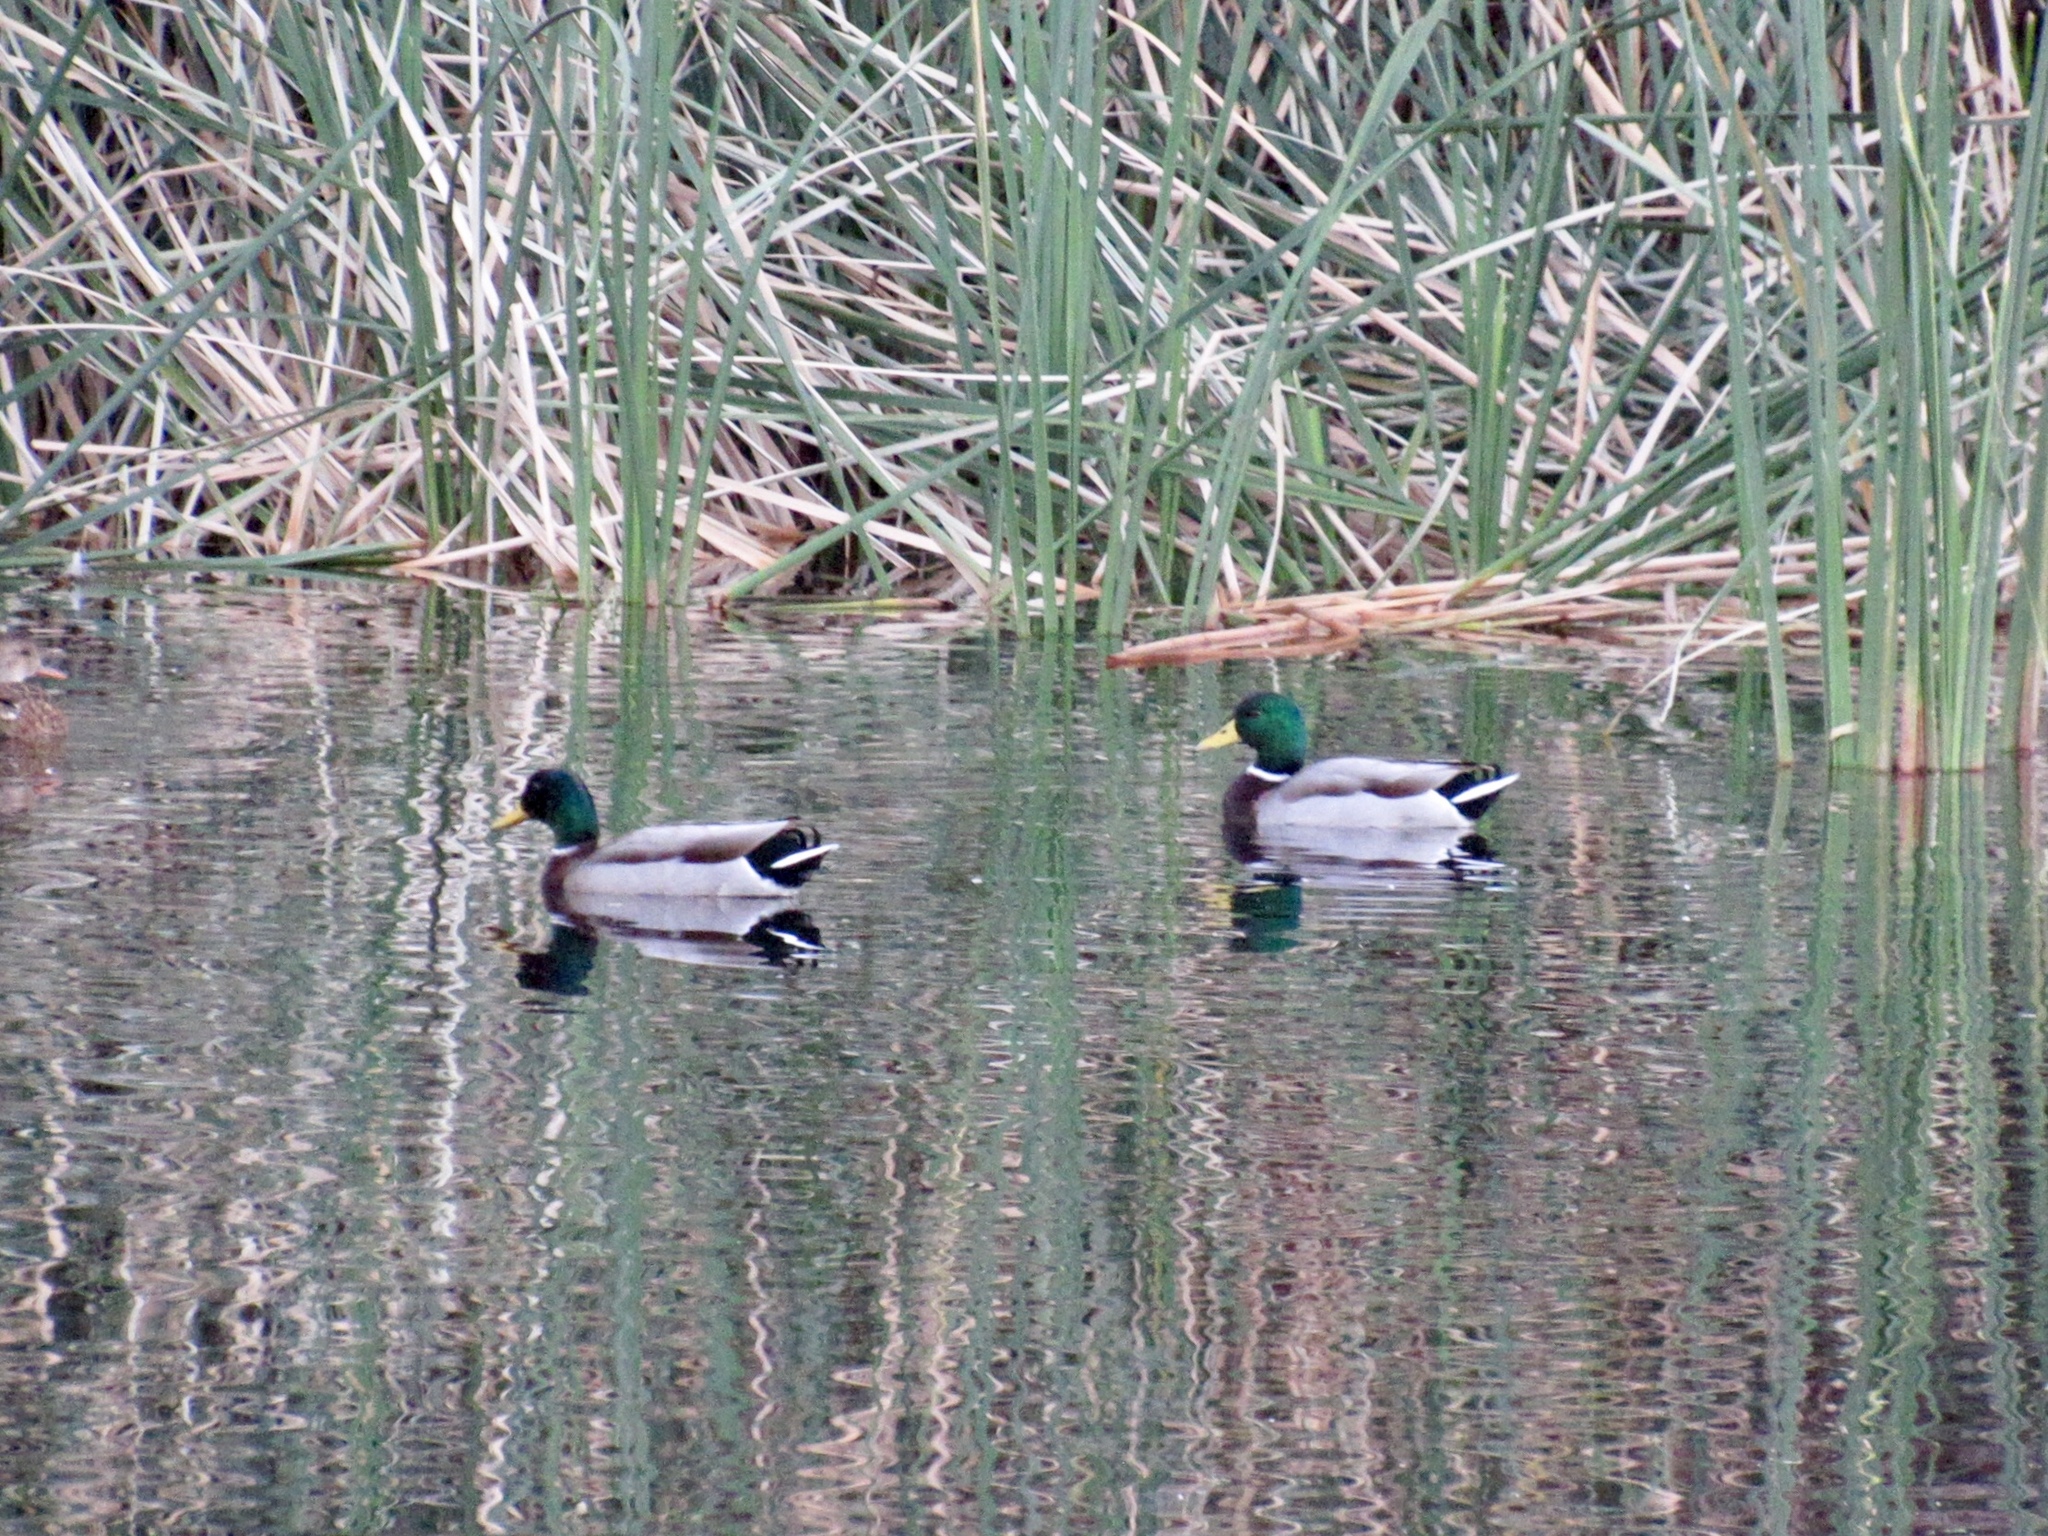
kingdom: Animalia
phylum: Chordata
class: Aves
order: Anseriformes
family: Anatidae
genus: Anas
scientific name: Anas platyrhynchos
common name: Mallard
